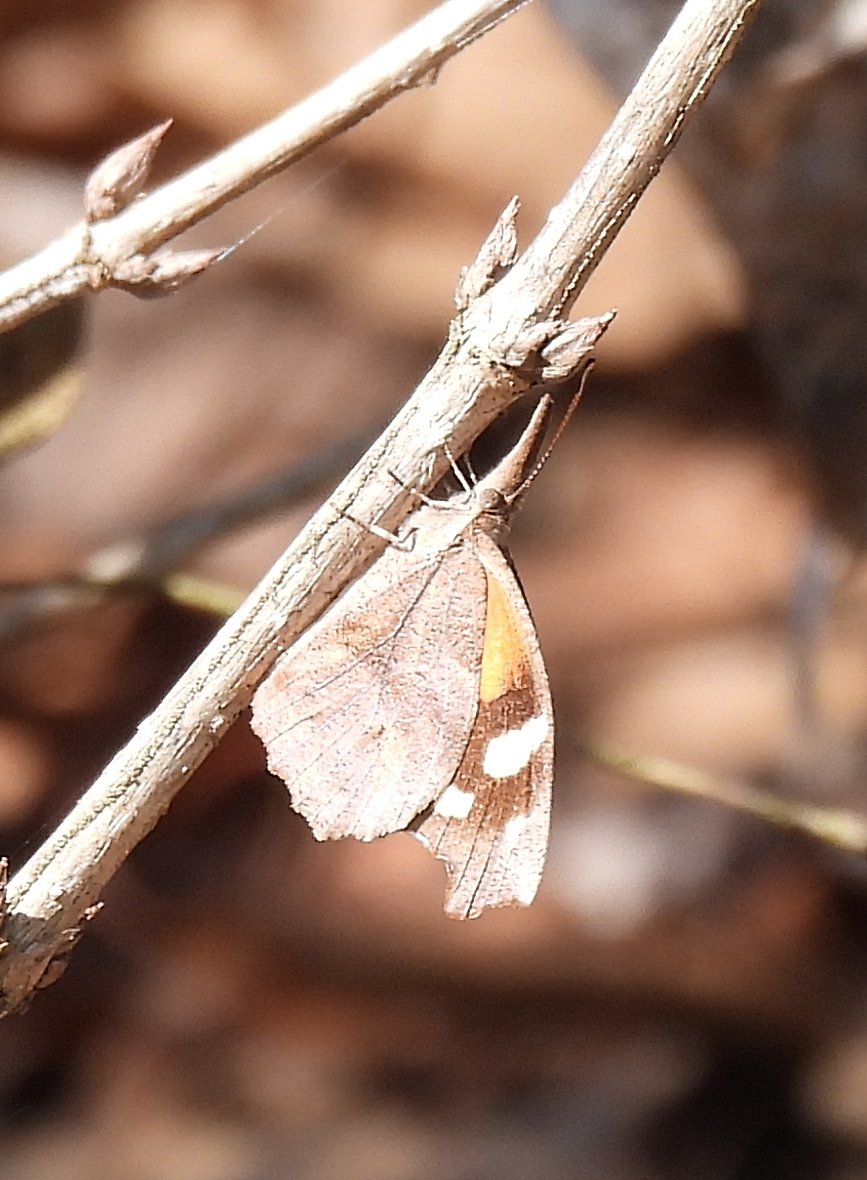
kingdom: Animalia
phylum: Arthropoda
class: Insecta
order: Lepidoptera
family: Nymphalidae
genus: Libytheana
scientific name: Libytheana carinenta
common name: American snout
